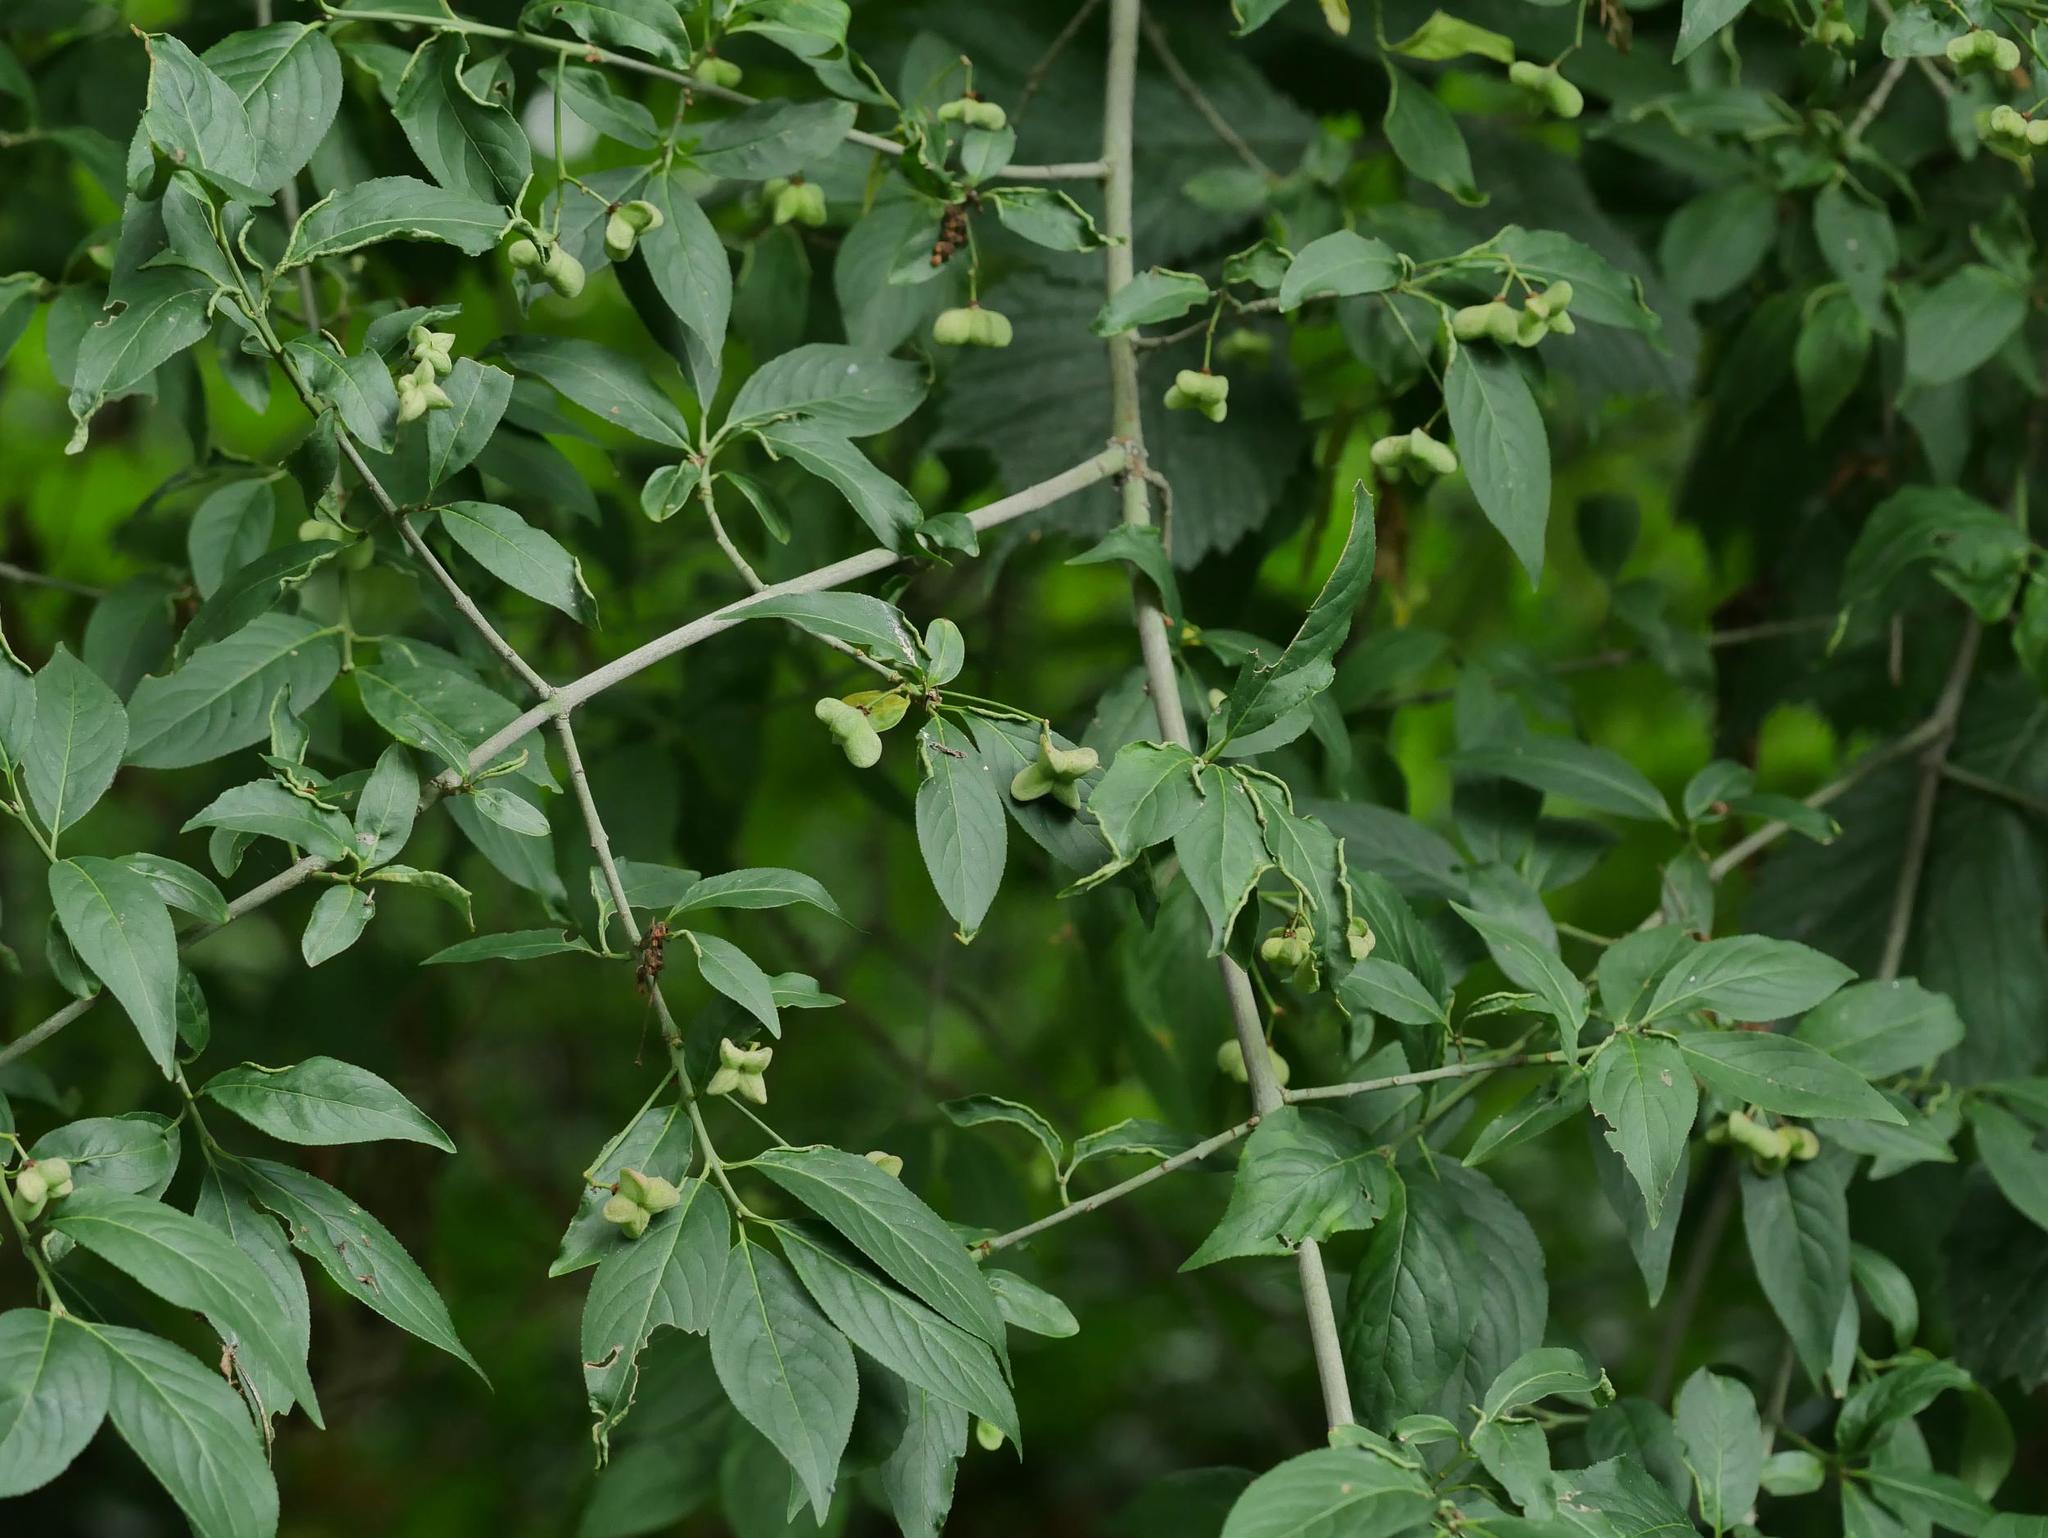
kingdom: Plantae
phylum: Tracheophyta
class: Magnoliopsida
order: Celastrales
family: Celastraceae
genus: Euonymus
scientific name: Euonymus europaeus
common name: Spindle
